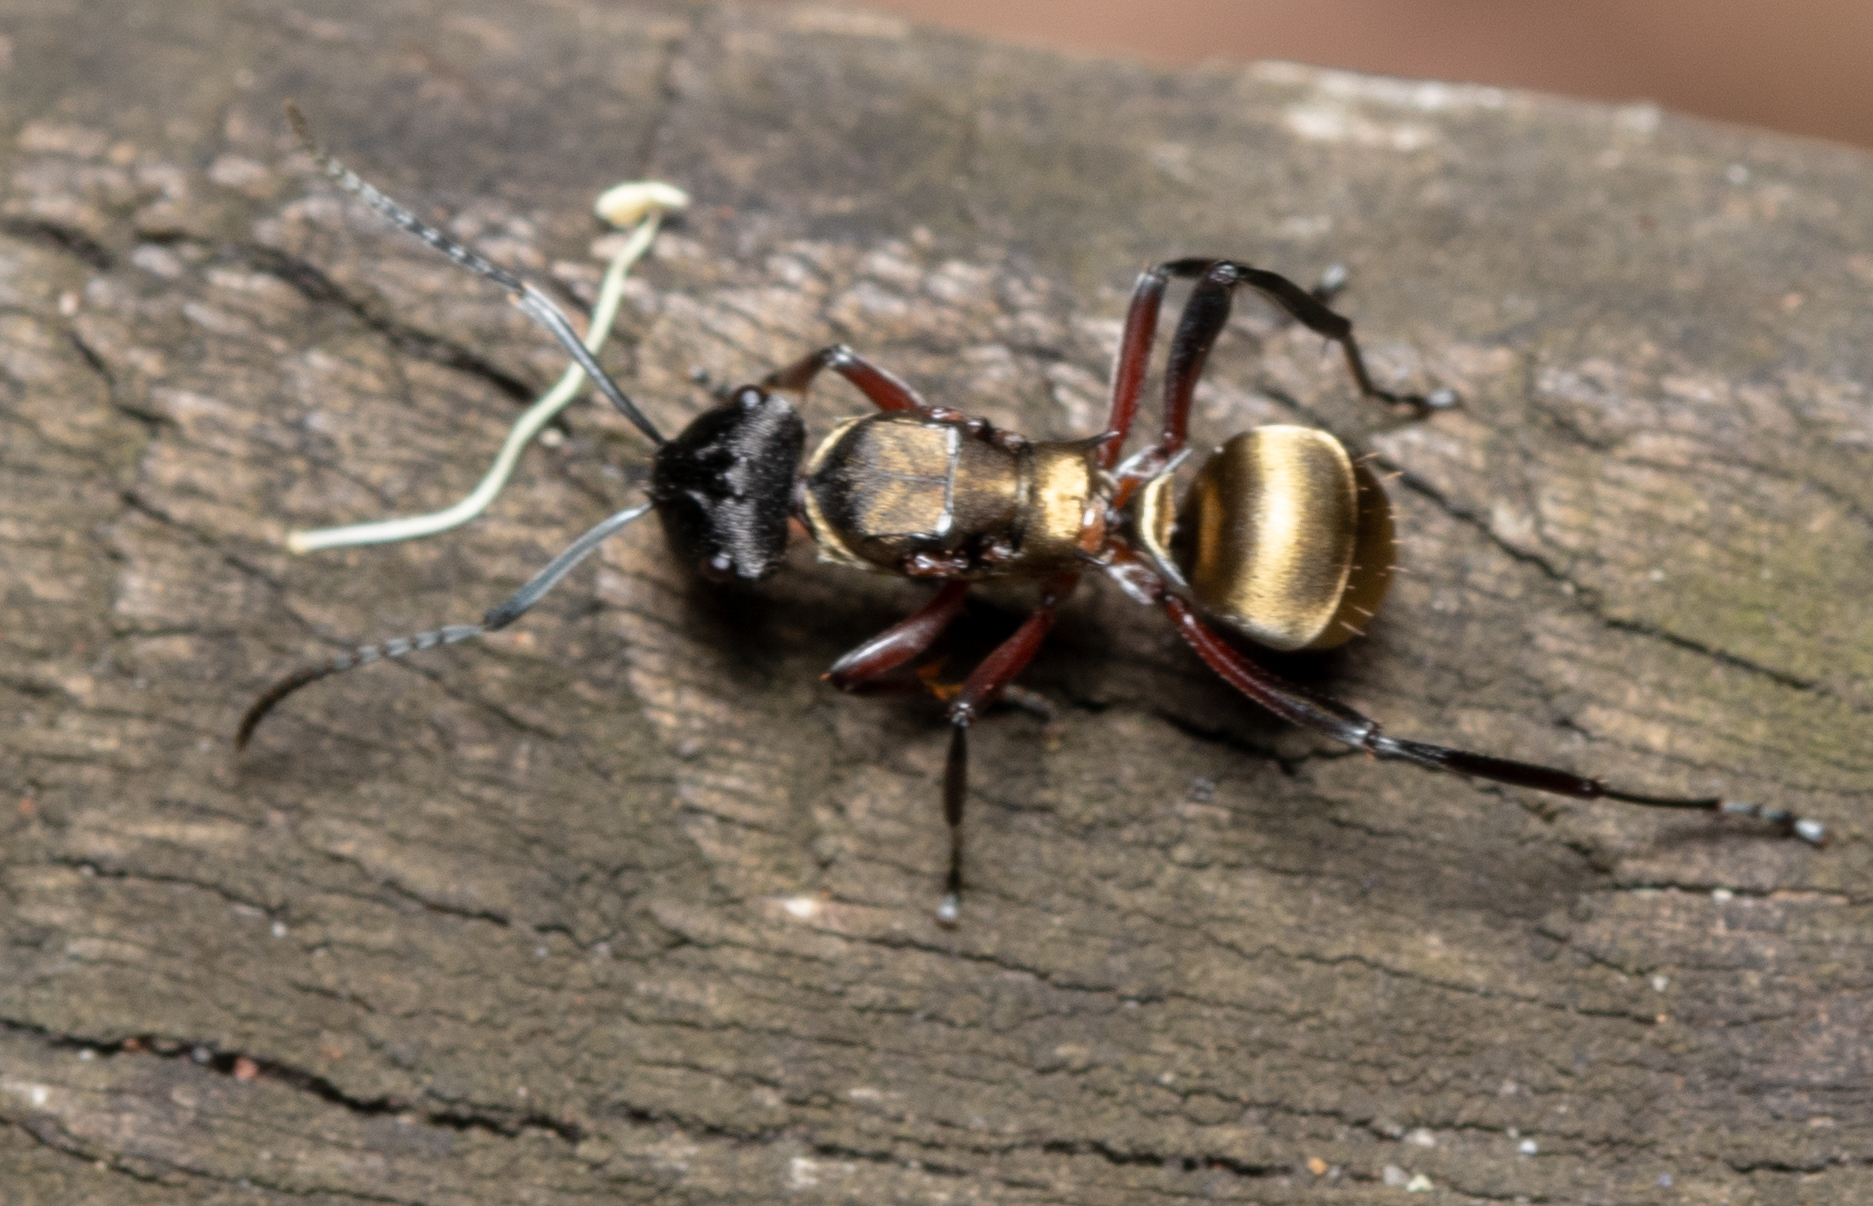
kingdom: Animalia
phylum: Arthropoda
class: Insecta
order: Hymenoptera
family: Formicidae
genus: Polyrhachis
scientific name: Polyrhachis rufifemur
